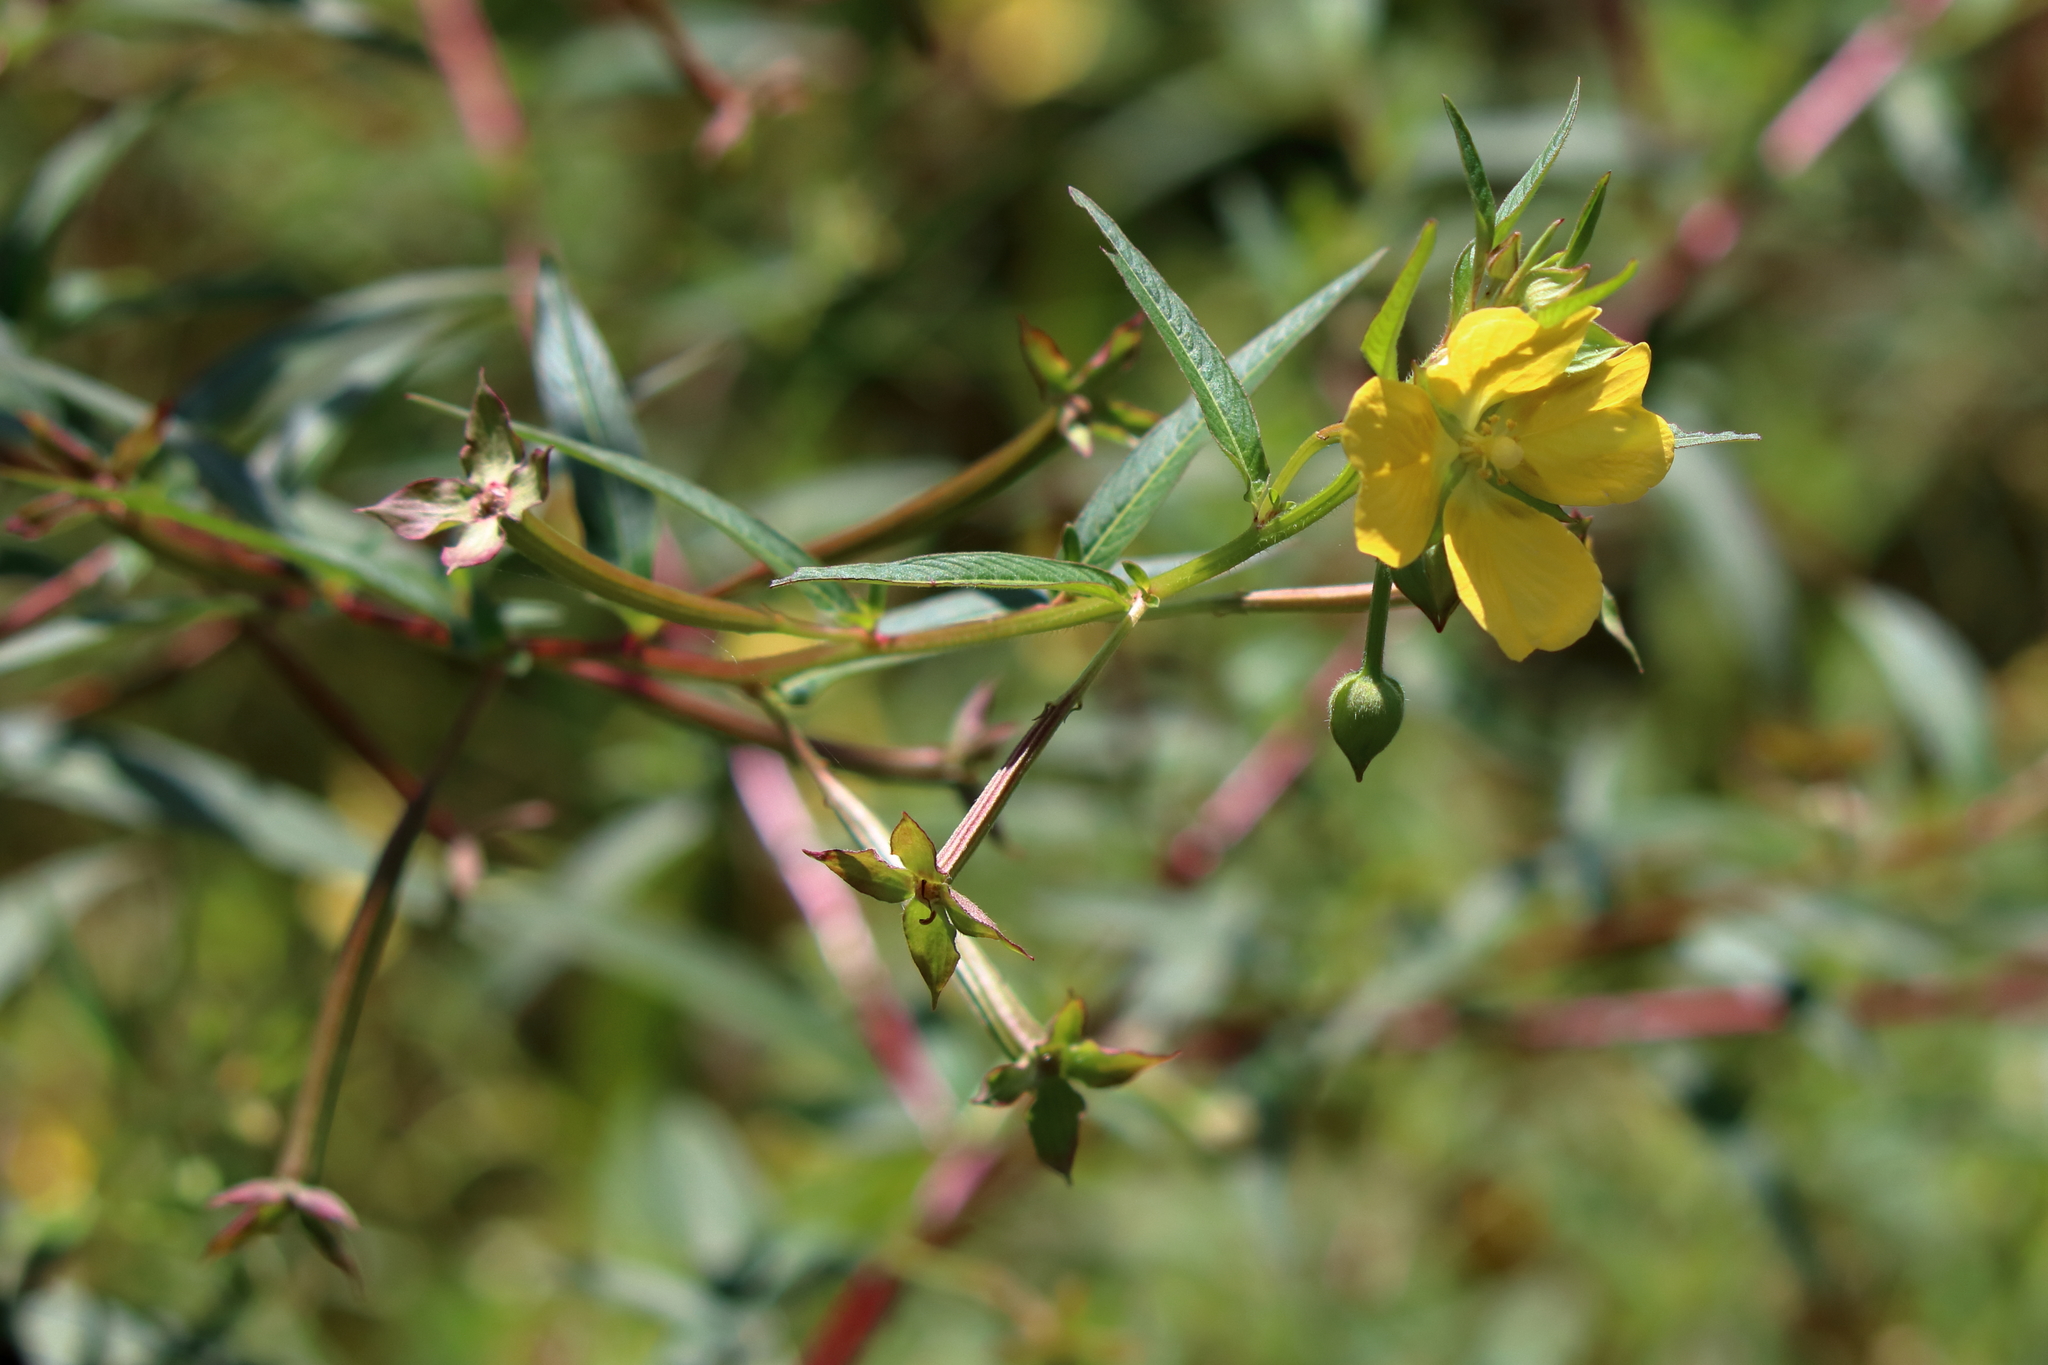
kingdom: Plantae
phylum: Tracheophyta
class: Magnoliopsida
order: Myrtales
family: Onagraceae
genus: Ludwigia
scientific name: Ludwigia octovalvis
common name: Water-primrose
